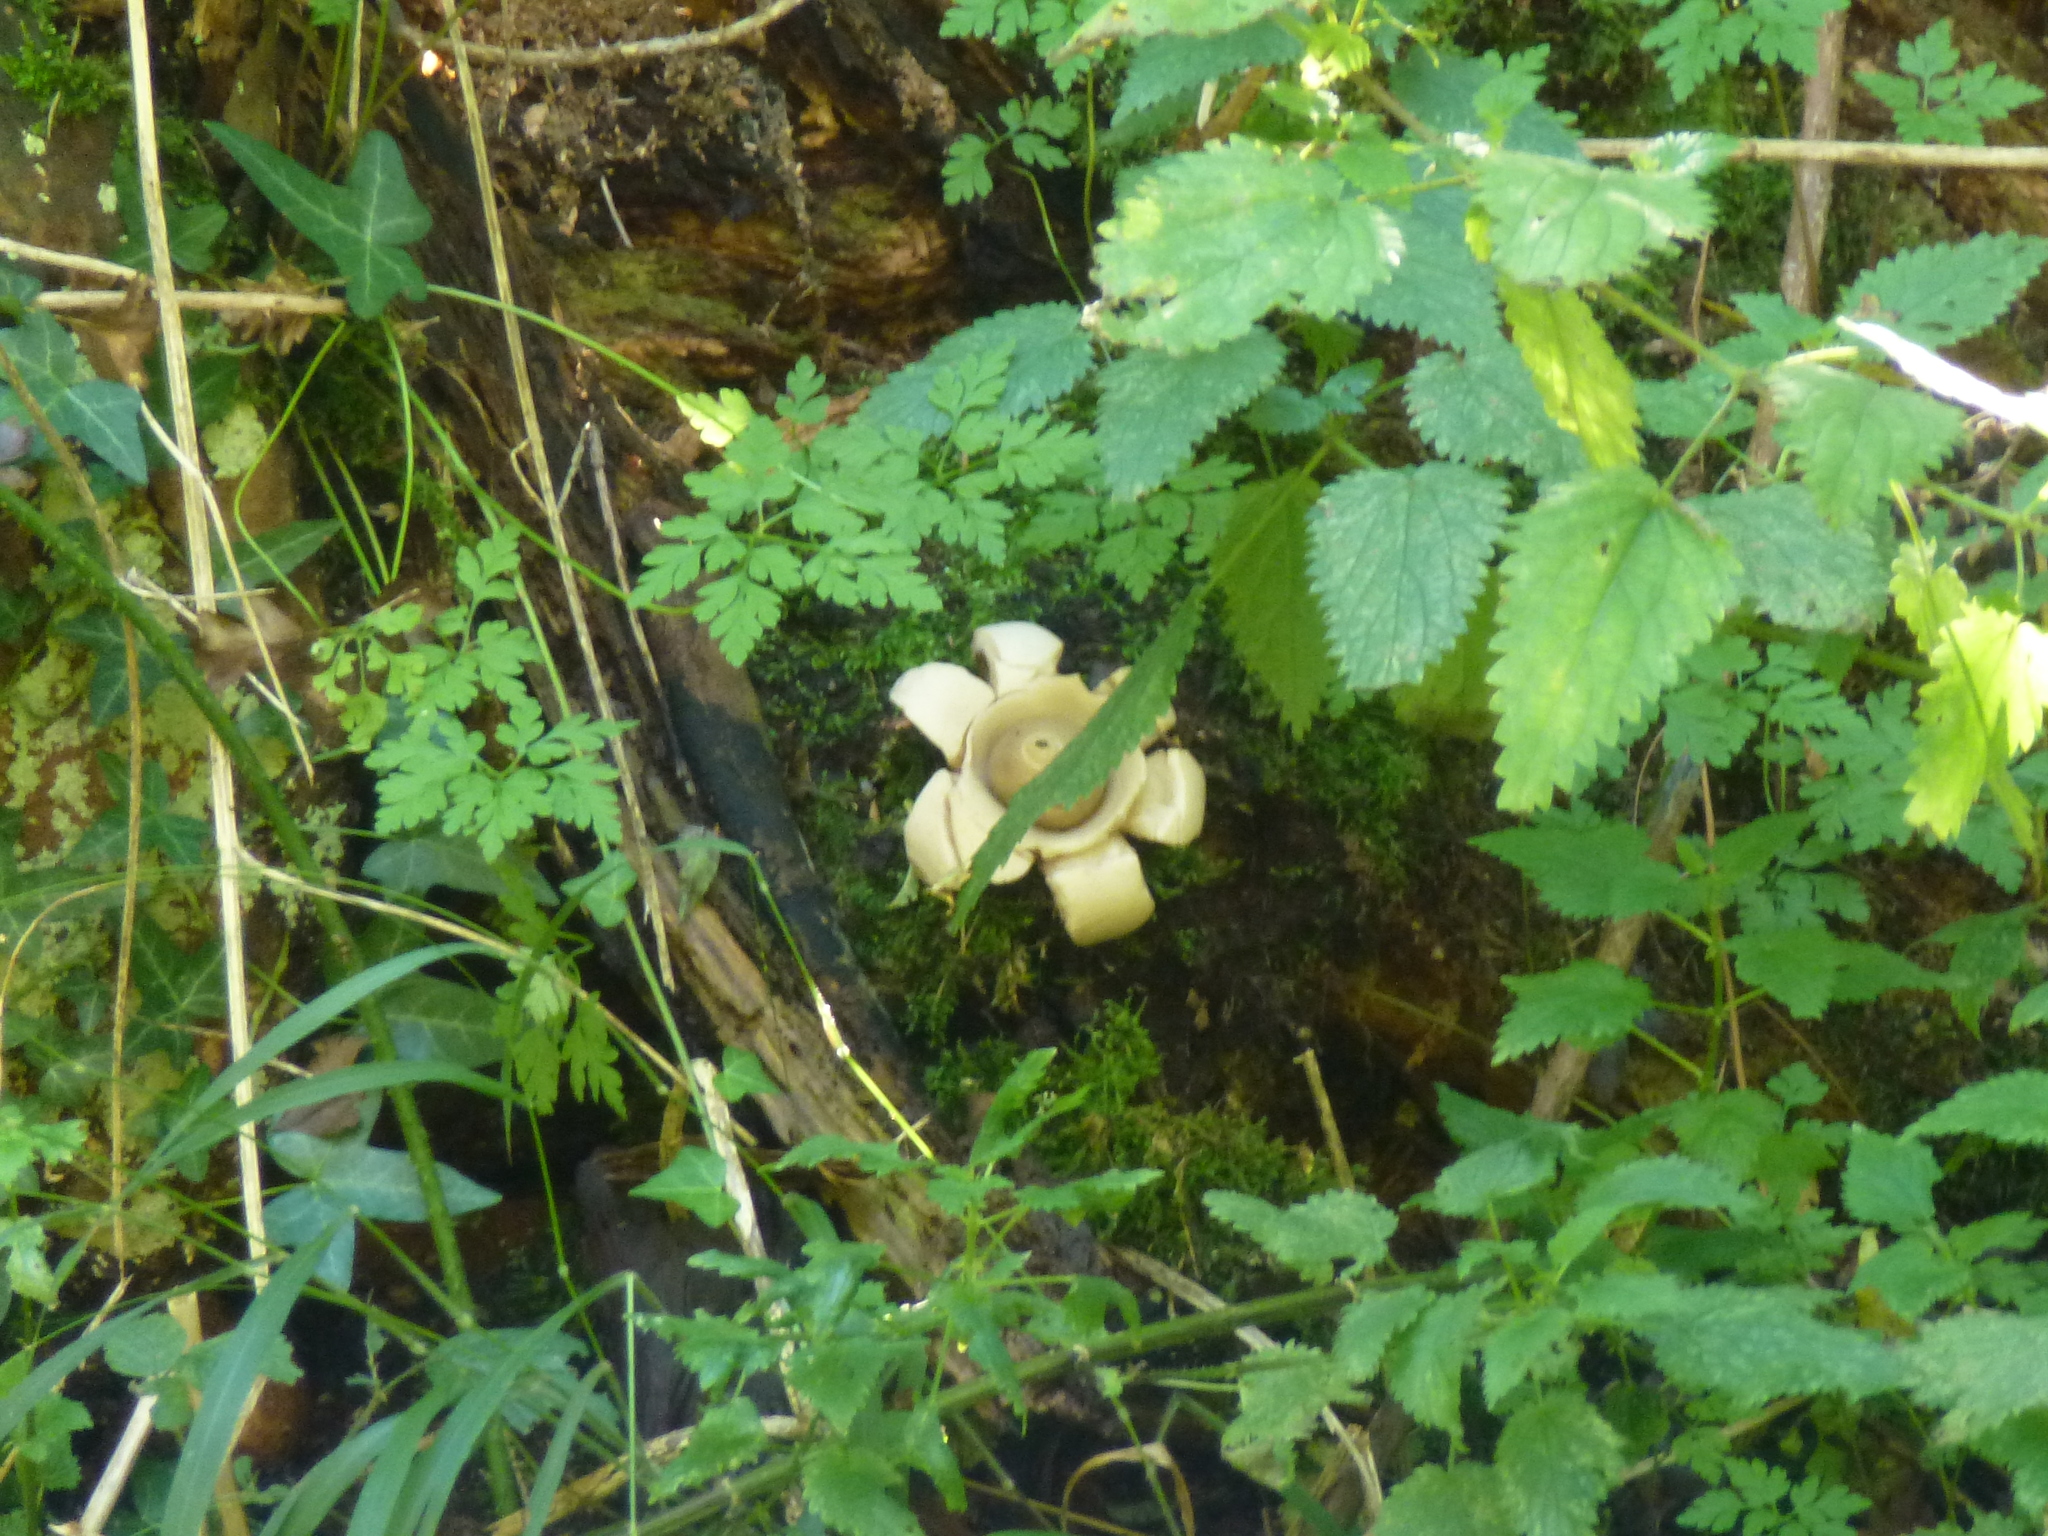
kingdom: Fungi
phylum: Basidiomycota
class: Agaricomycetes
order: Geastrales
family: Geastraceae
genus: Geastrum
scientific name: Geastrum triplex
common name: Collared earthstar
